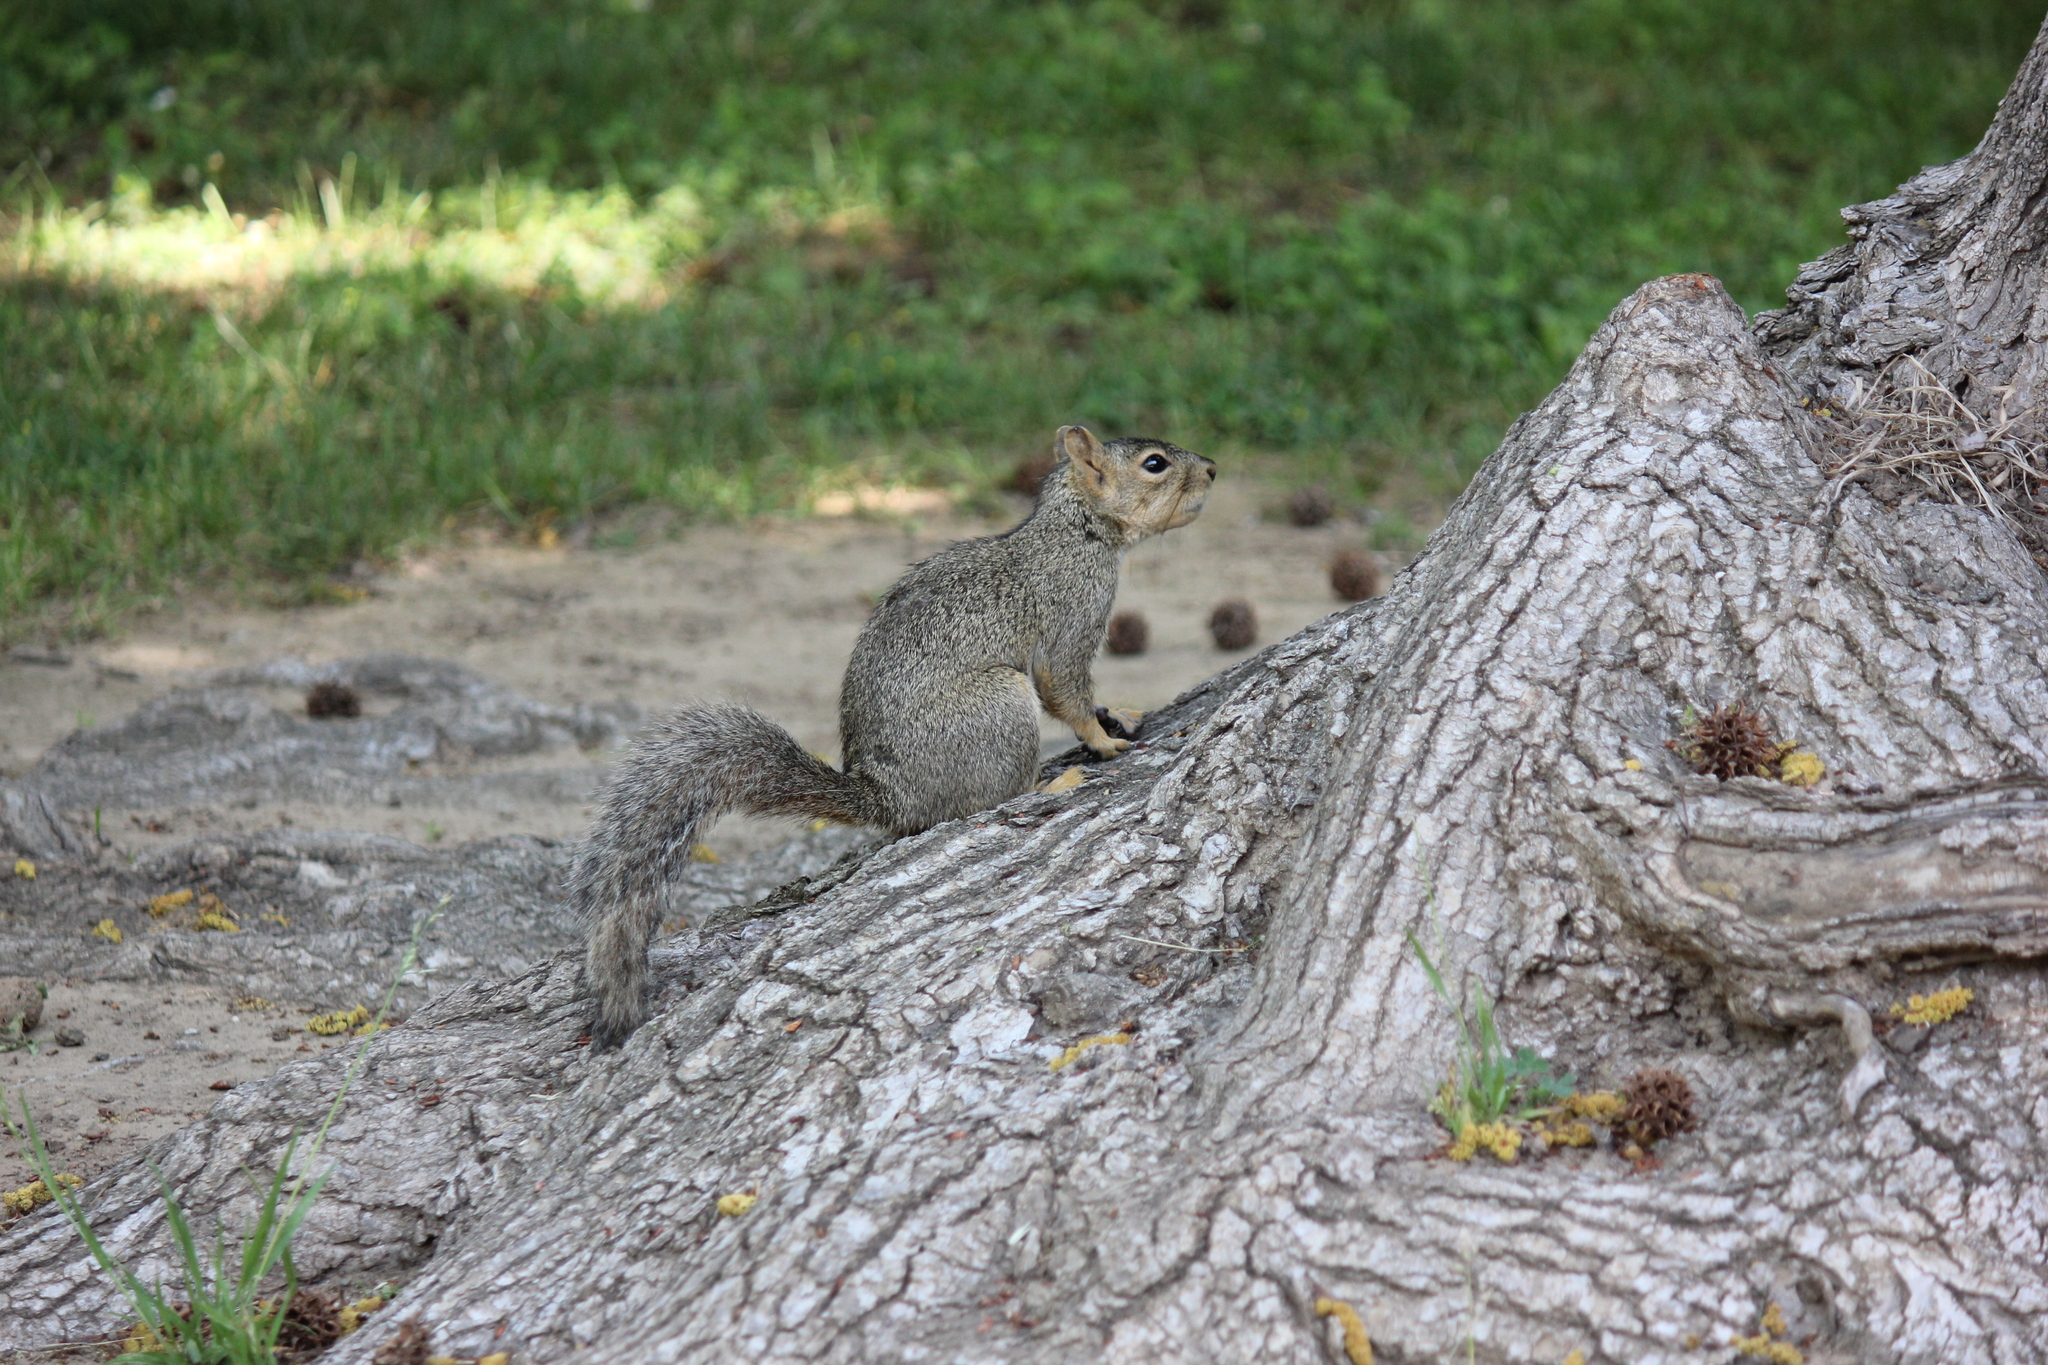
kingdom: Animalia
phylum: Chordata
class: Mammalia
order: Rodentia
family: Sciuridae
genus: Sciurus
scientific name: Sciurus niger
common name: Fox squirrel
